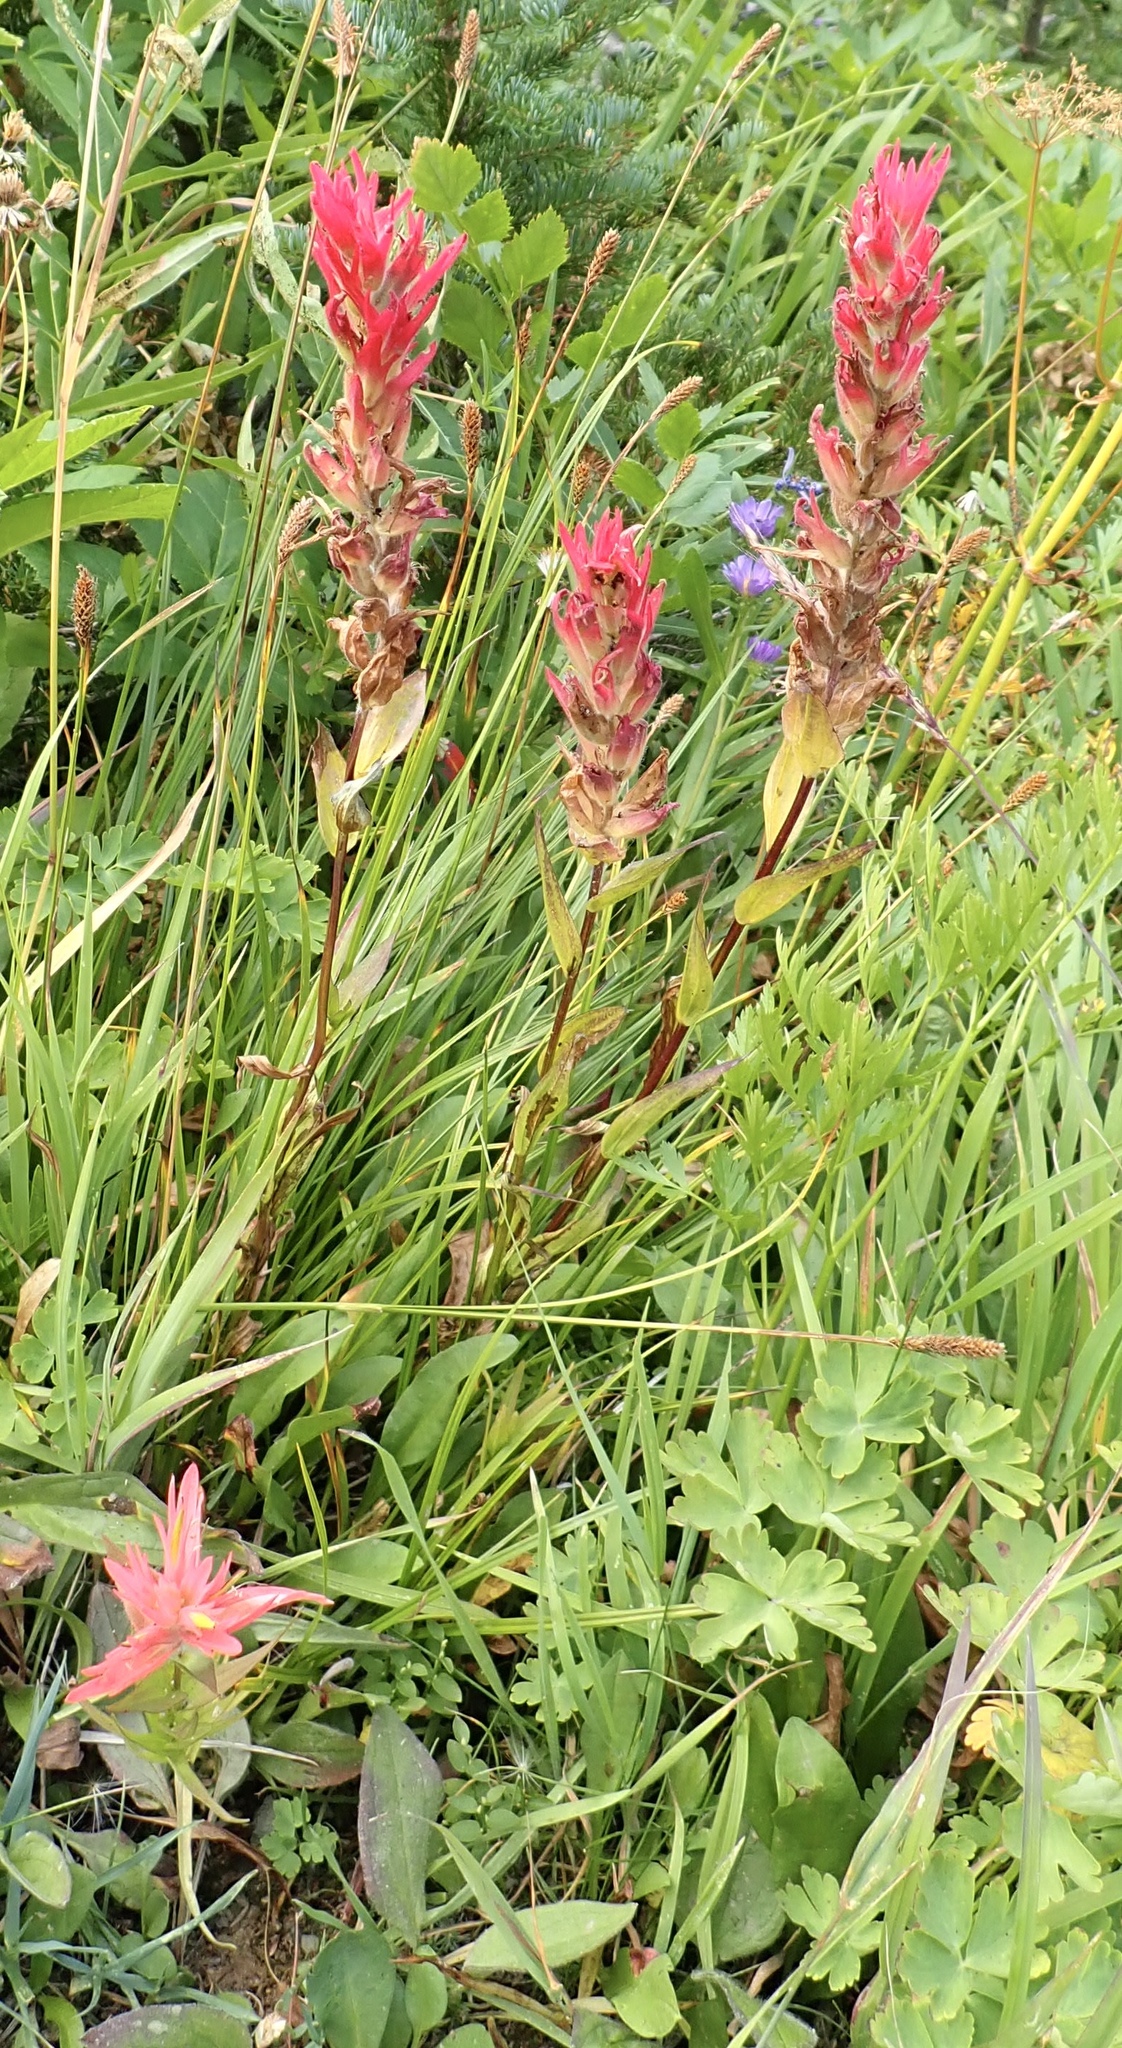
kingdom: Plantae
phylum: Tracheophyta
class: Magnoliopsida
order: Lamiales
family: Orobanchaceae
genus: Castilleja
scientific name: Castilleja miniata
